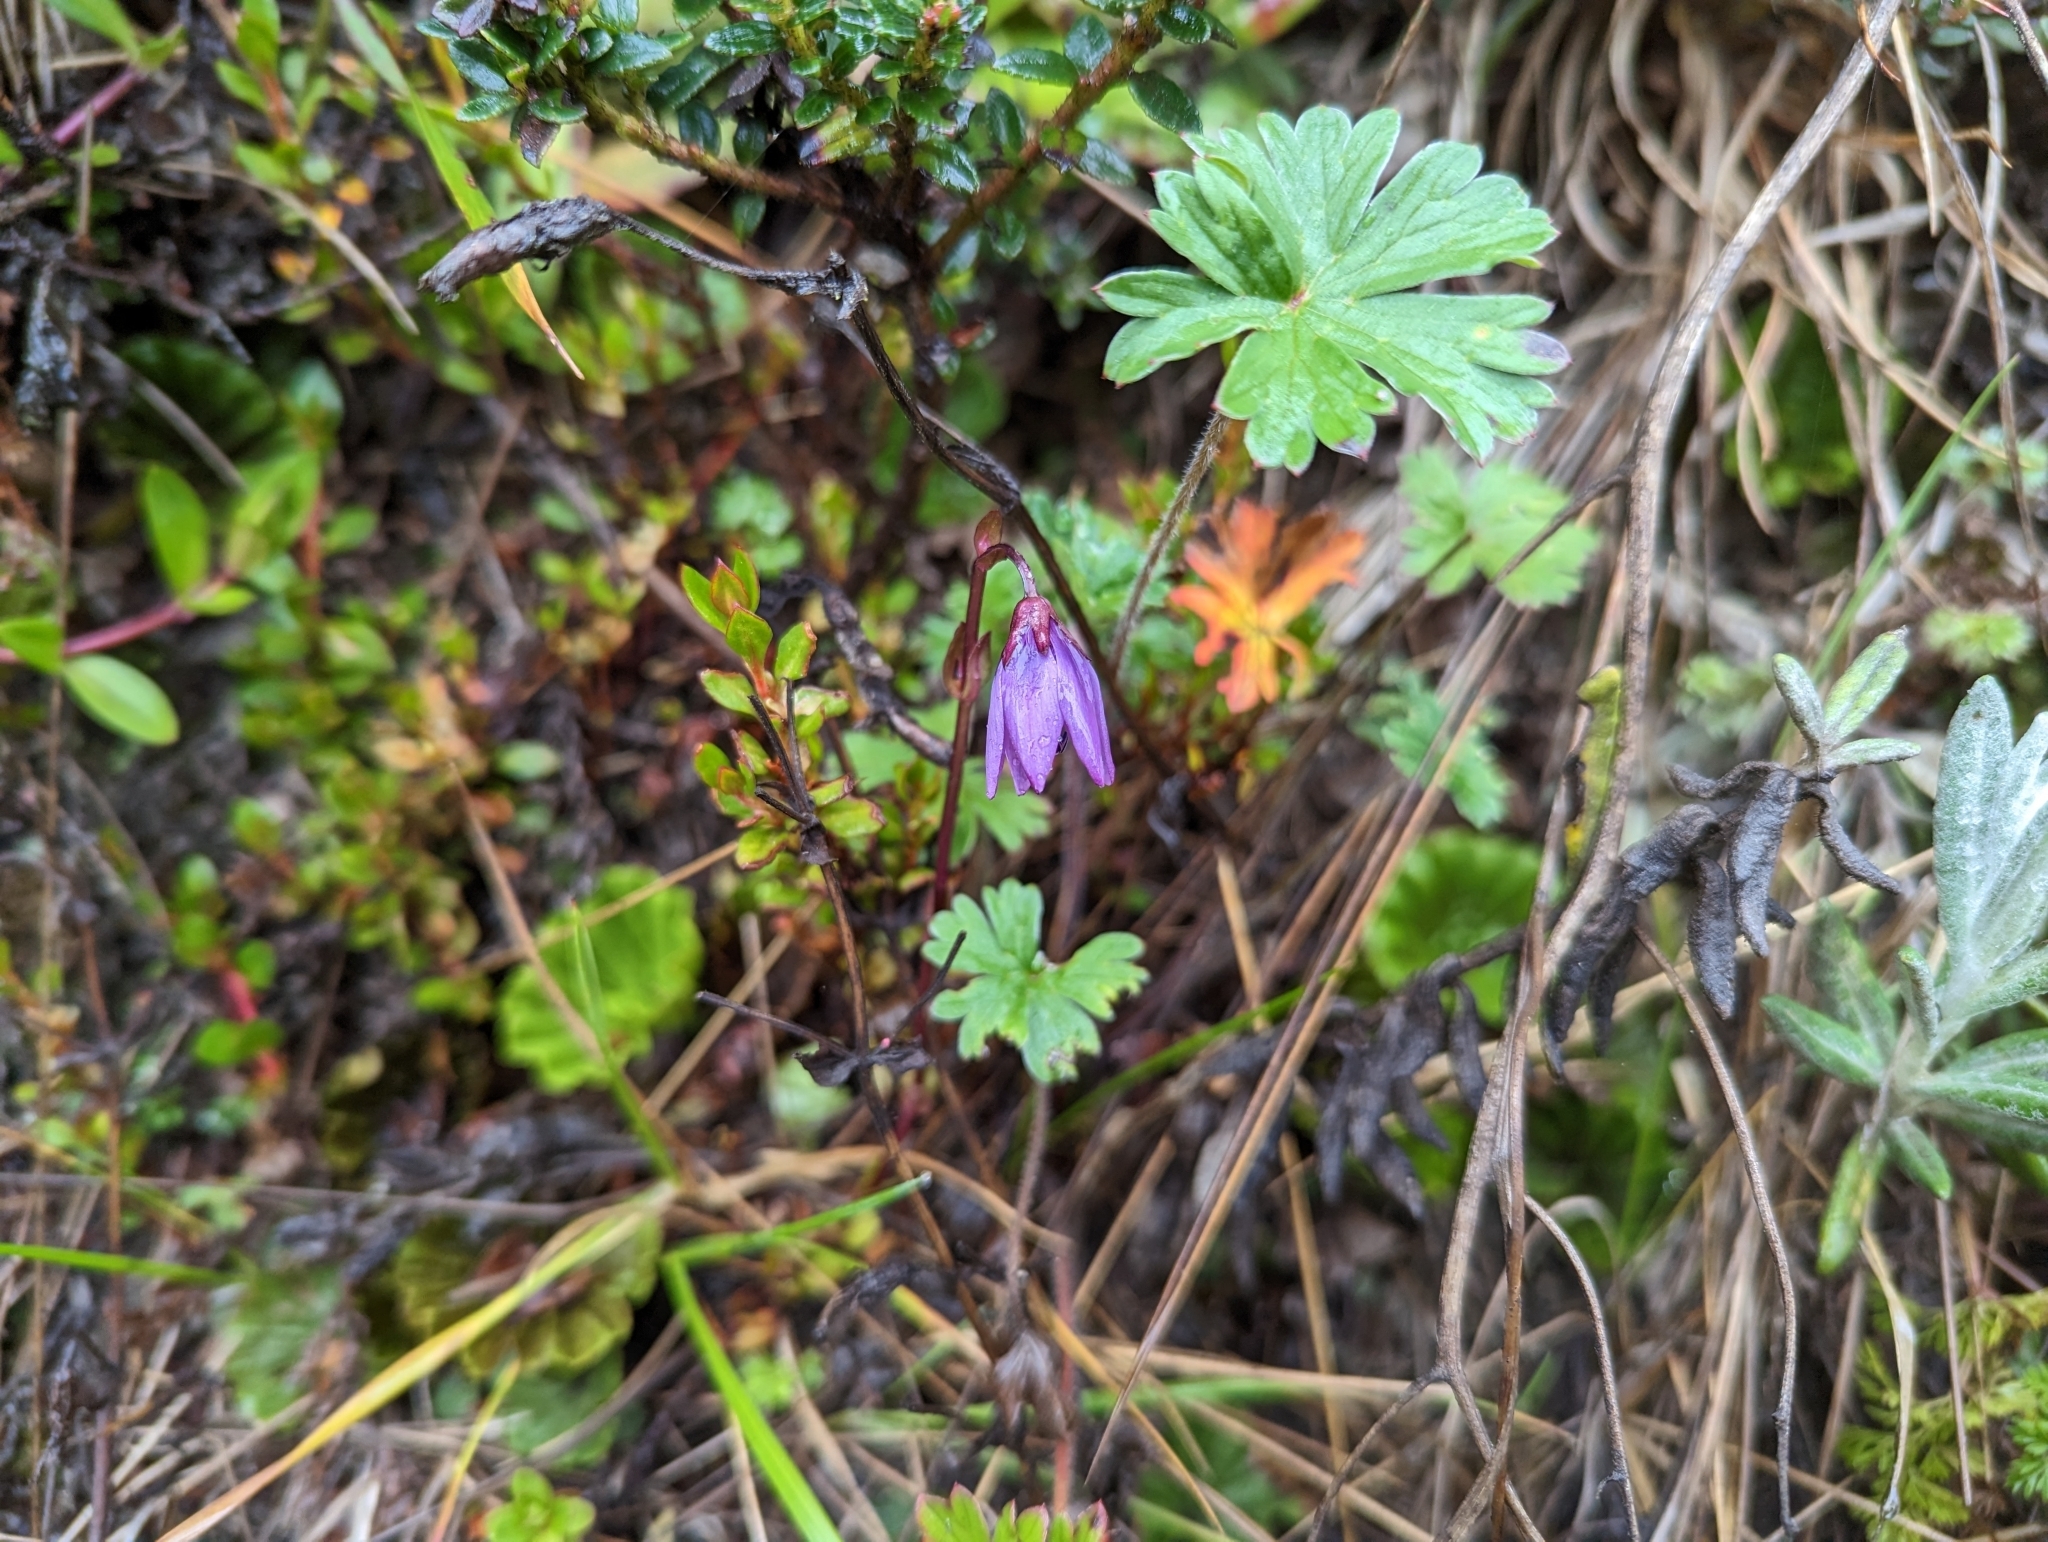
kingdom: Plantae
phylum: Tracheophyta
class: Magnoliopsida
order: Gentianales
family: Gentianaceae
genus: Gentianella
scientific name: Gentianella rapunculoides
